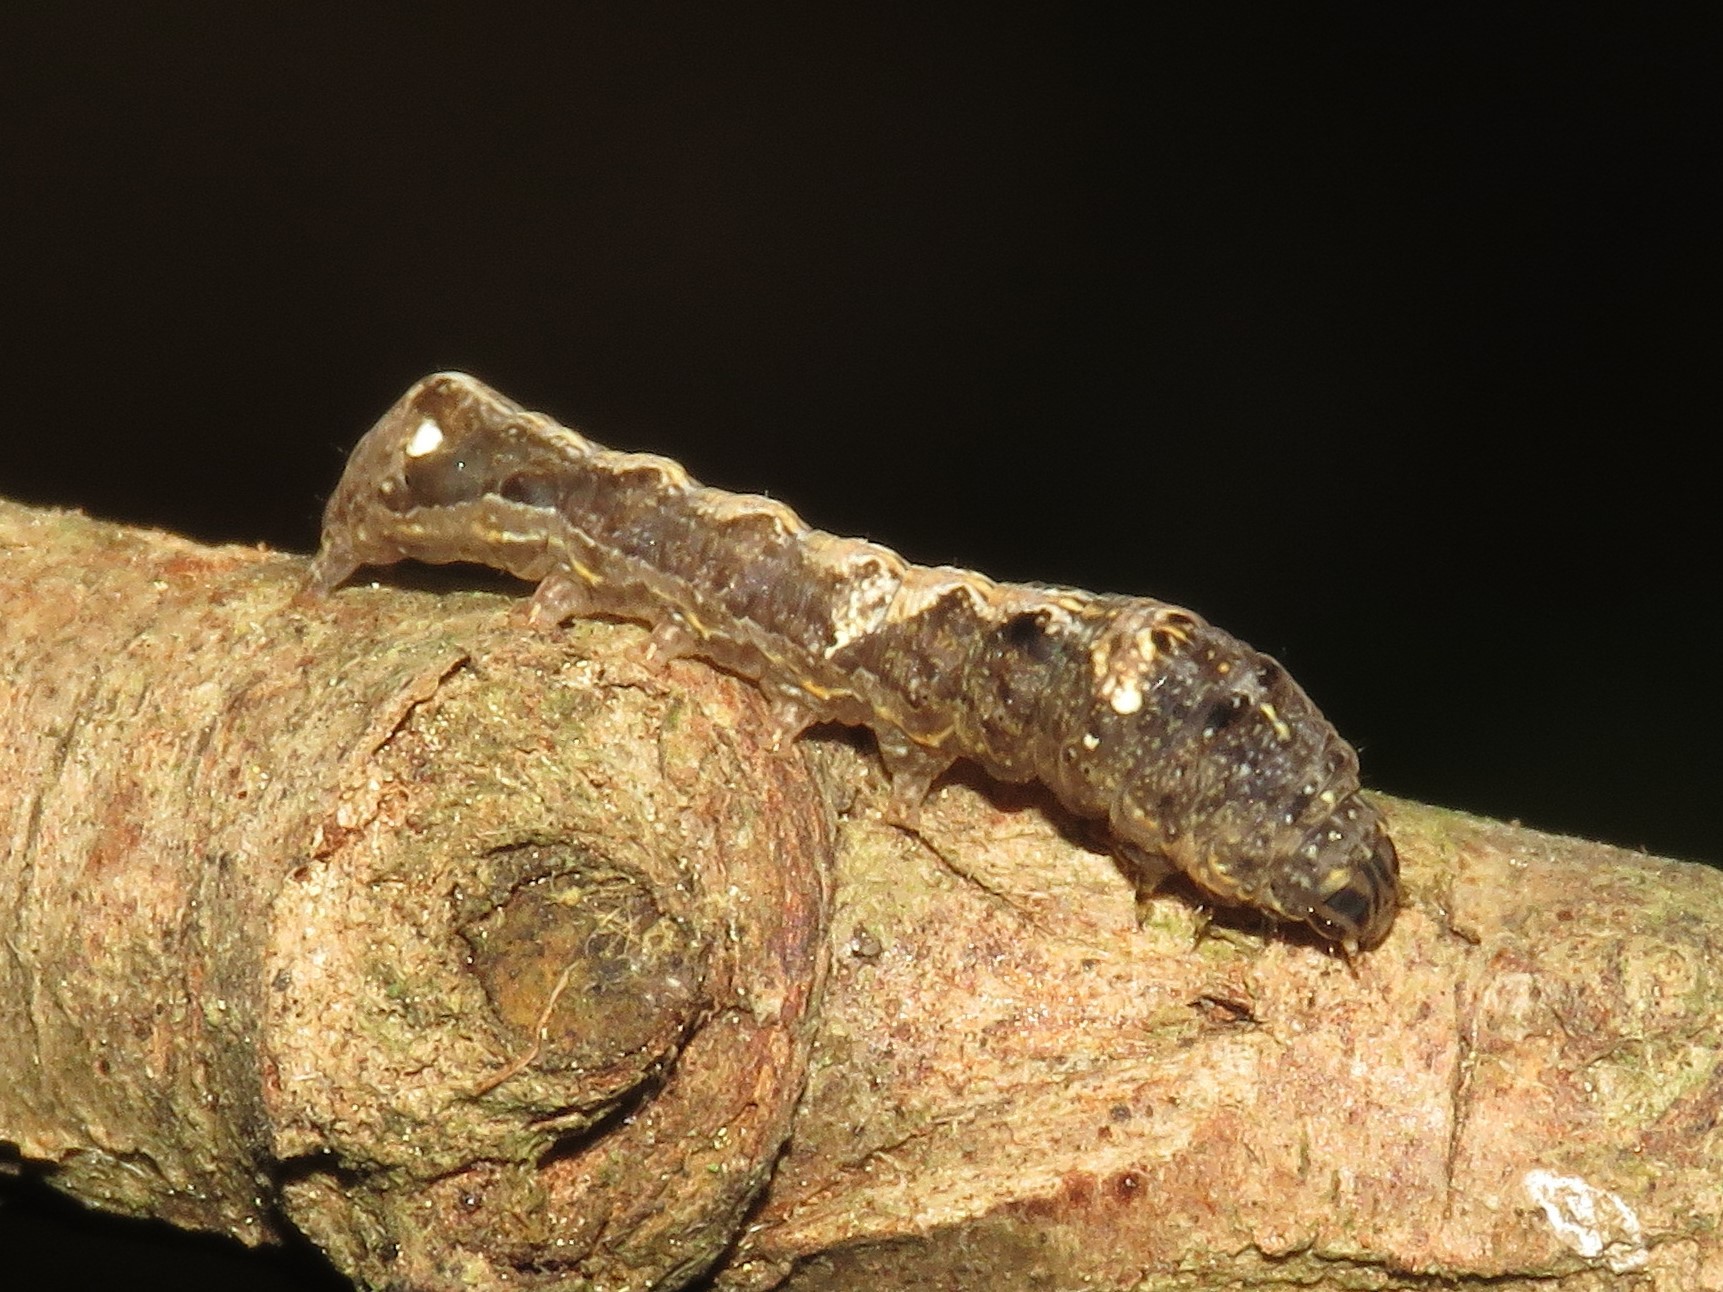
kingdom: Animalia
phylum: Arthropoda
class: Insecta
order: Lepidoptera
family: Noctuidae
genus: Elaphria
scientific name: Elaphria versicolor
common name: Fir harlequin
